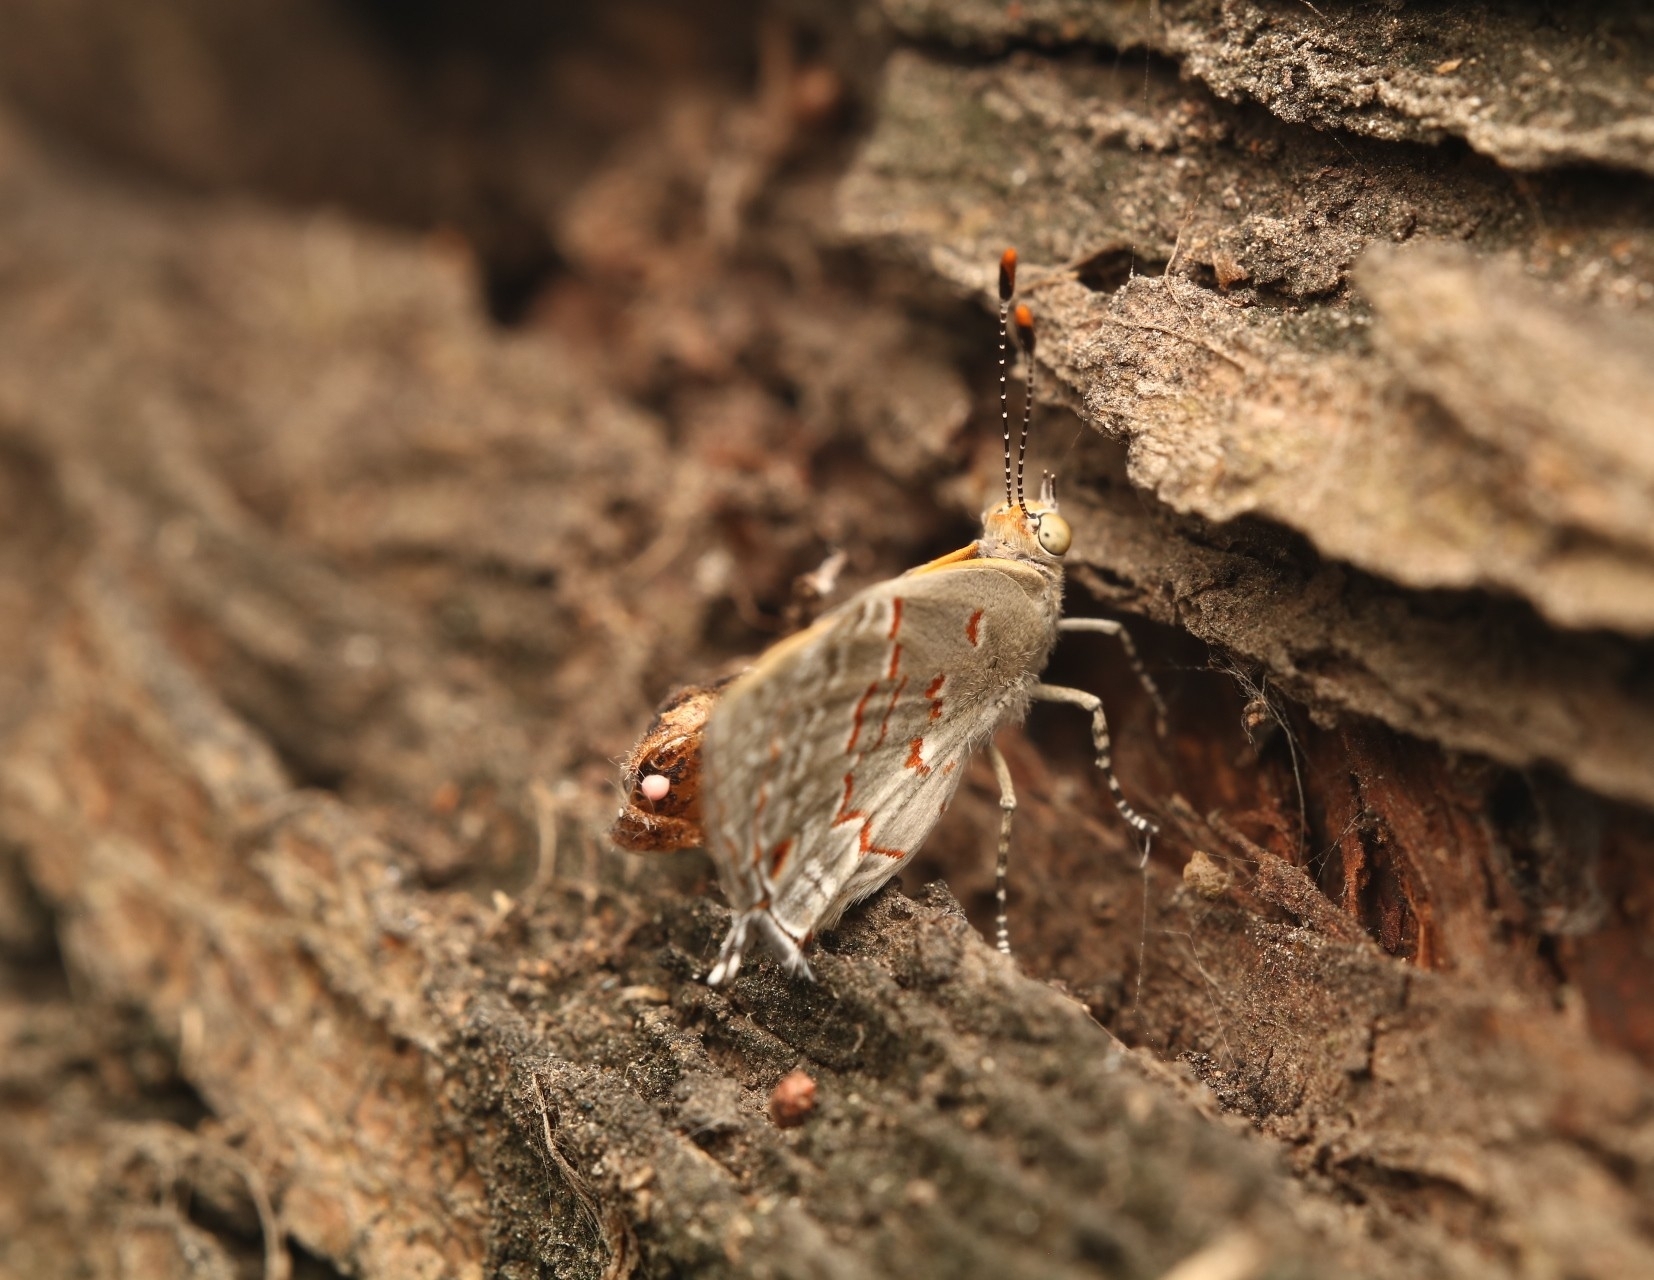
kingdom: Animalia
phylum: Arthropoda
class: Insecta
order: Lepidoptera
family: Lycaenidae
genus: Ministrymon
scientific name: Ministrymon
